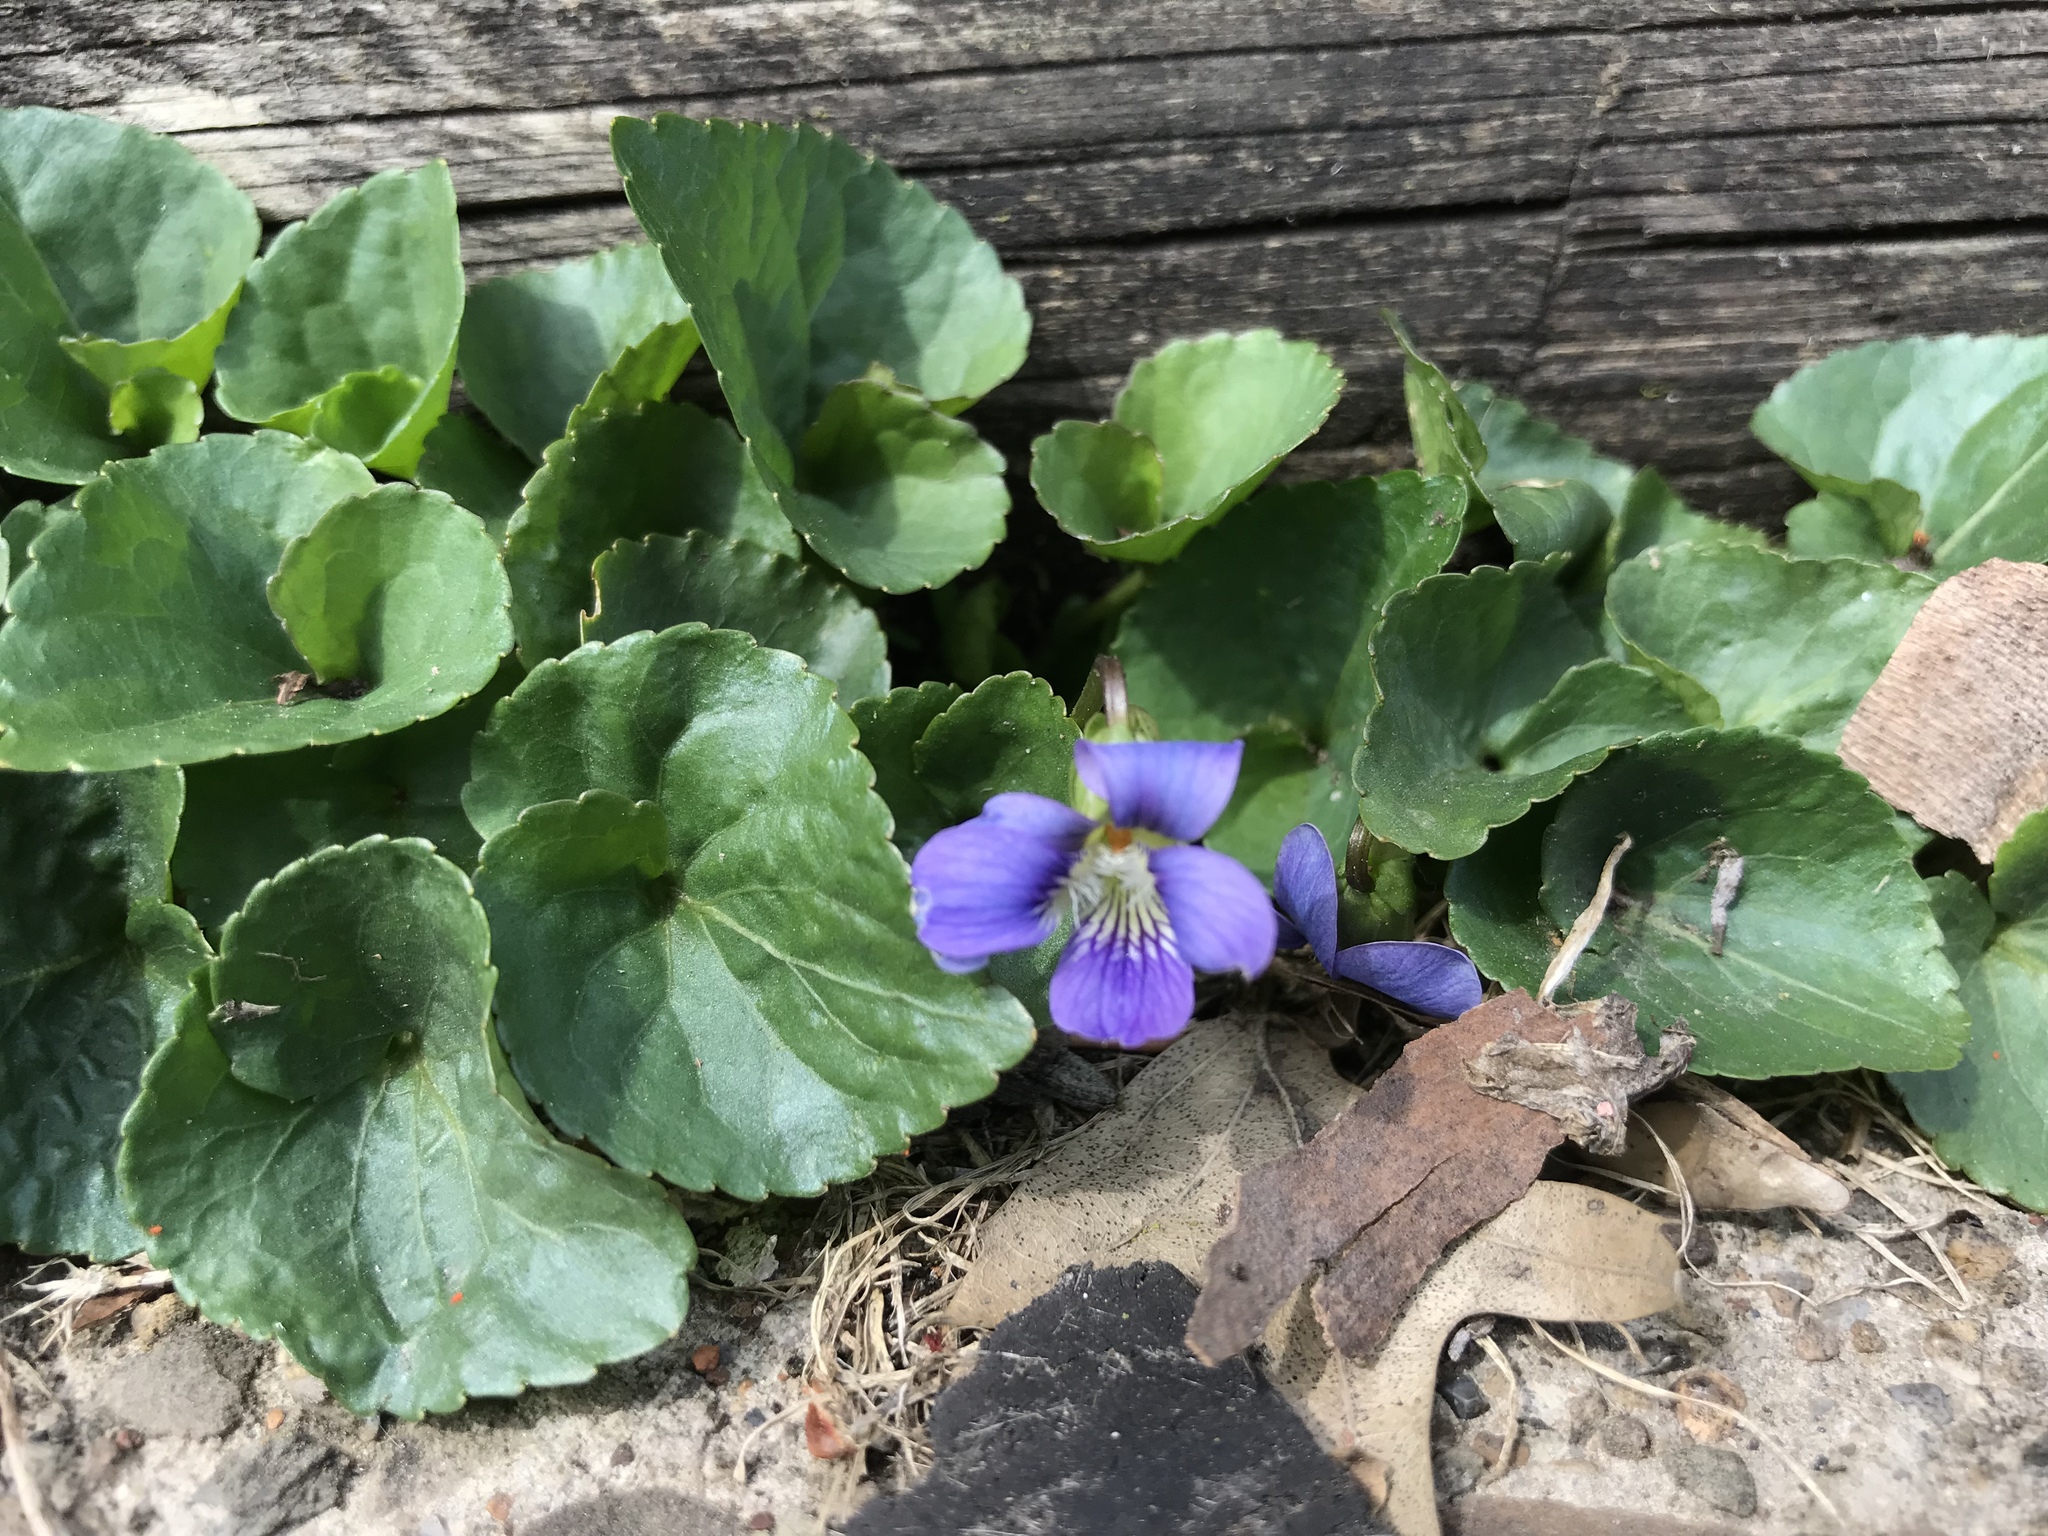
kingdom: Plantae
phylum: Tracheophyta
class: Magnoliopsida
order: Malpighiales
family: Violaceae
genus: Viola
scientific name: Viola sororia
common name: Dooryard violet
